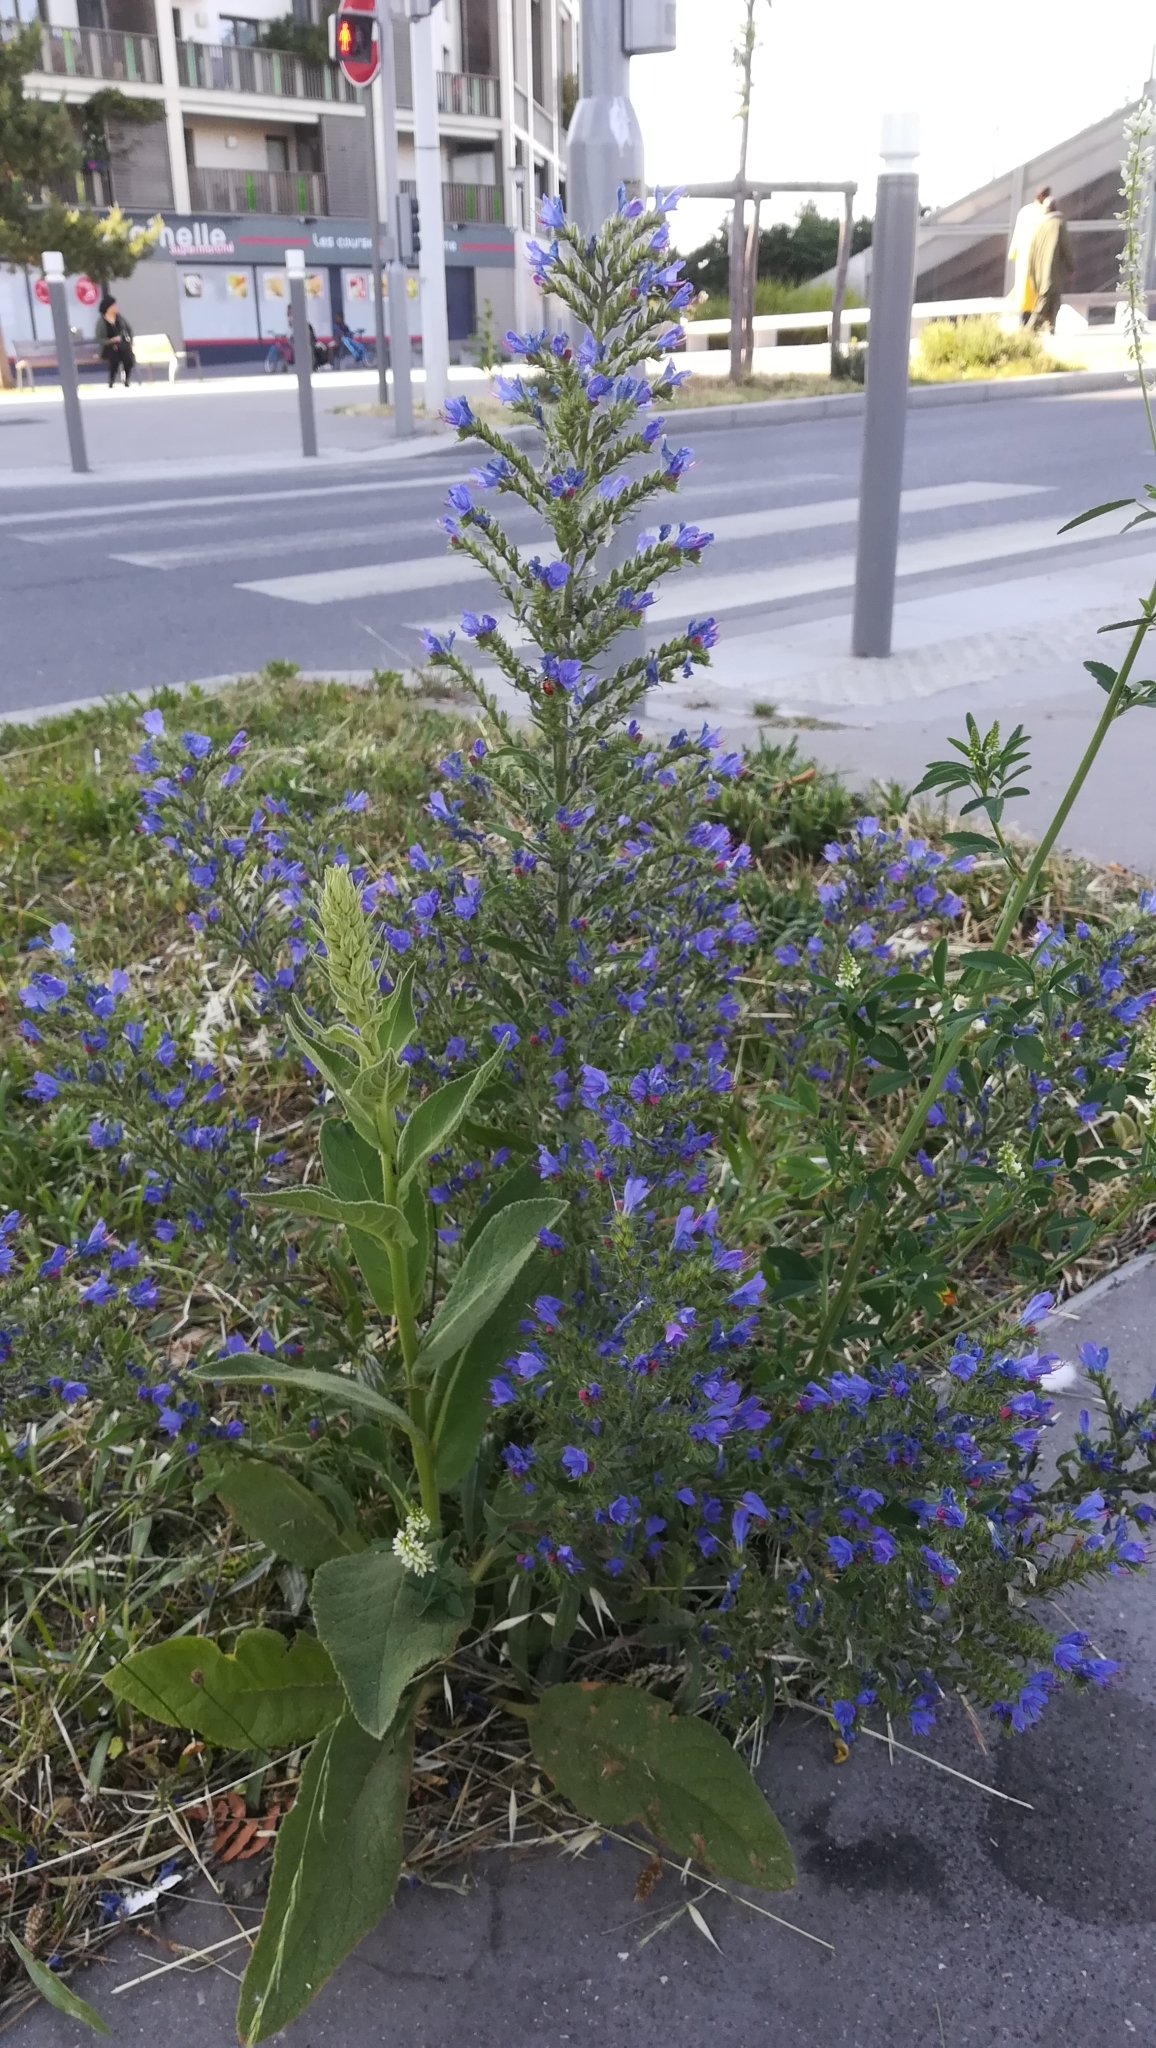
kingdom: Plantae
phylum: Tracheophyta
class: Magnoliopsida
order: Boraginales
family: Boraginaceae
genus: Echium
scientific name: Echium vulgare
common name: Common viper's bugloss
